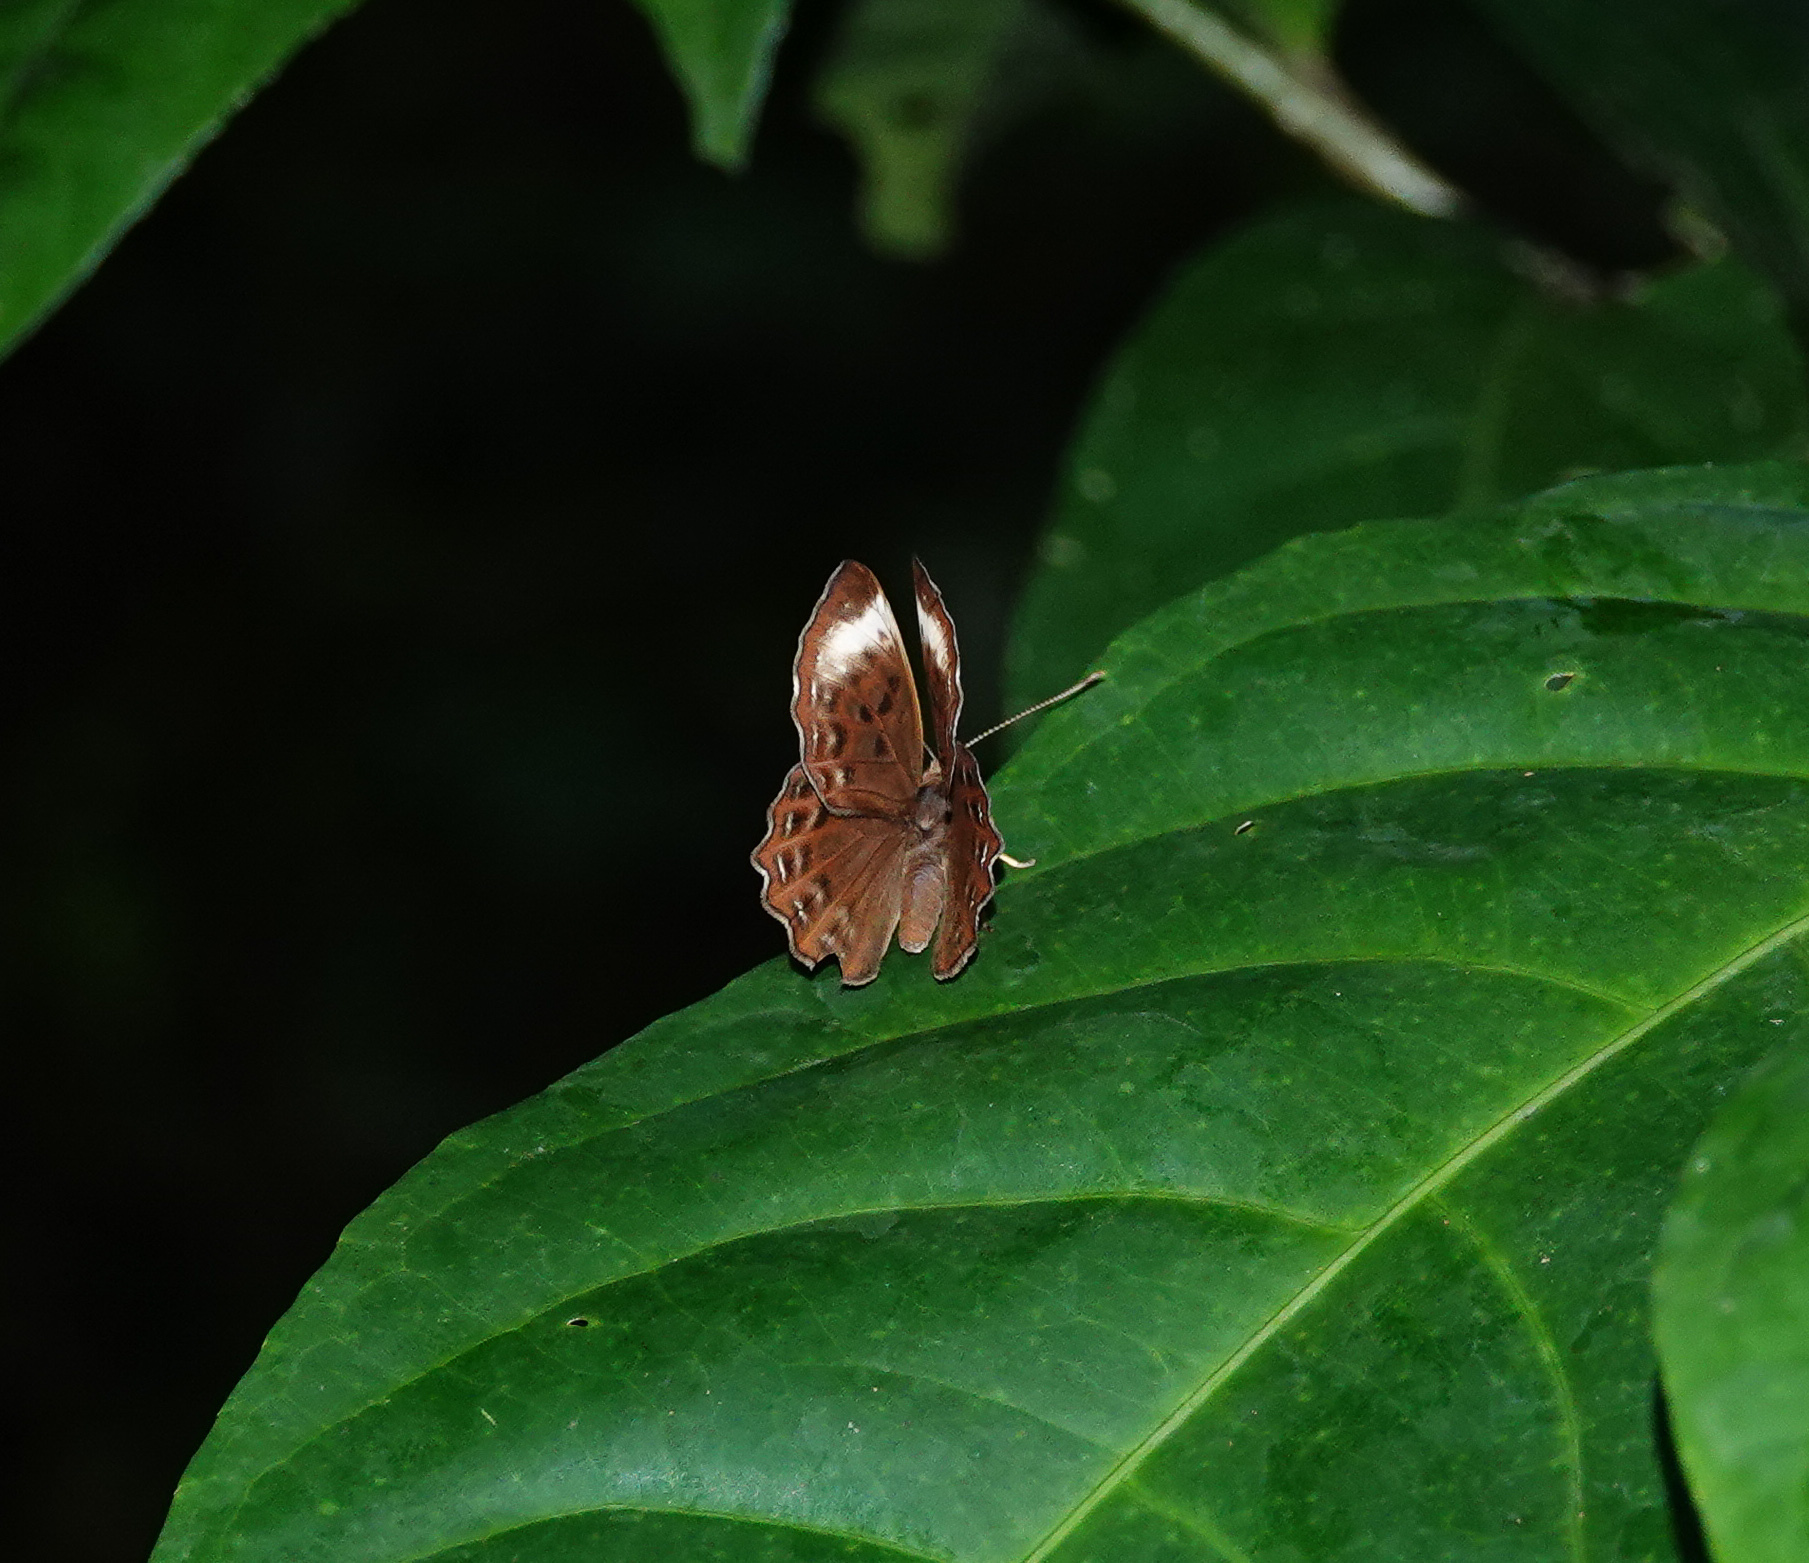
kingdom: Animalia
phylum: Arthropoda
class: Insecta
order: Lepidoptera
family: Erebidae
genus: Dysschema
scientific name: Dysschema
